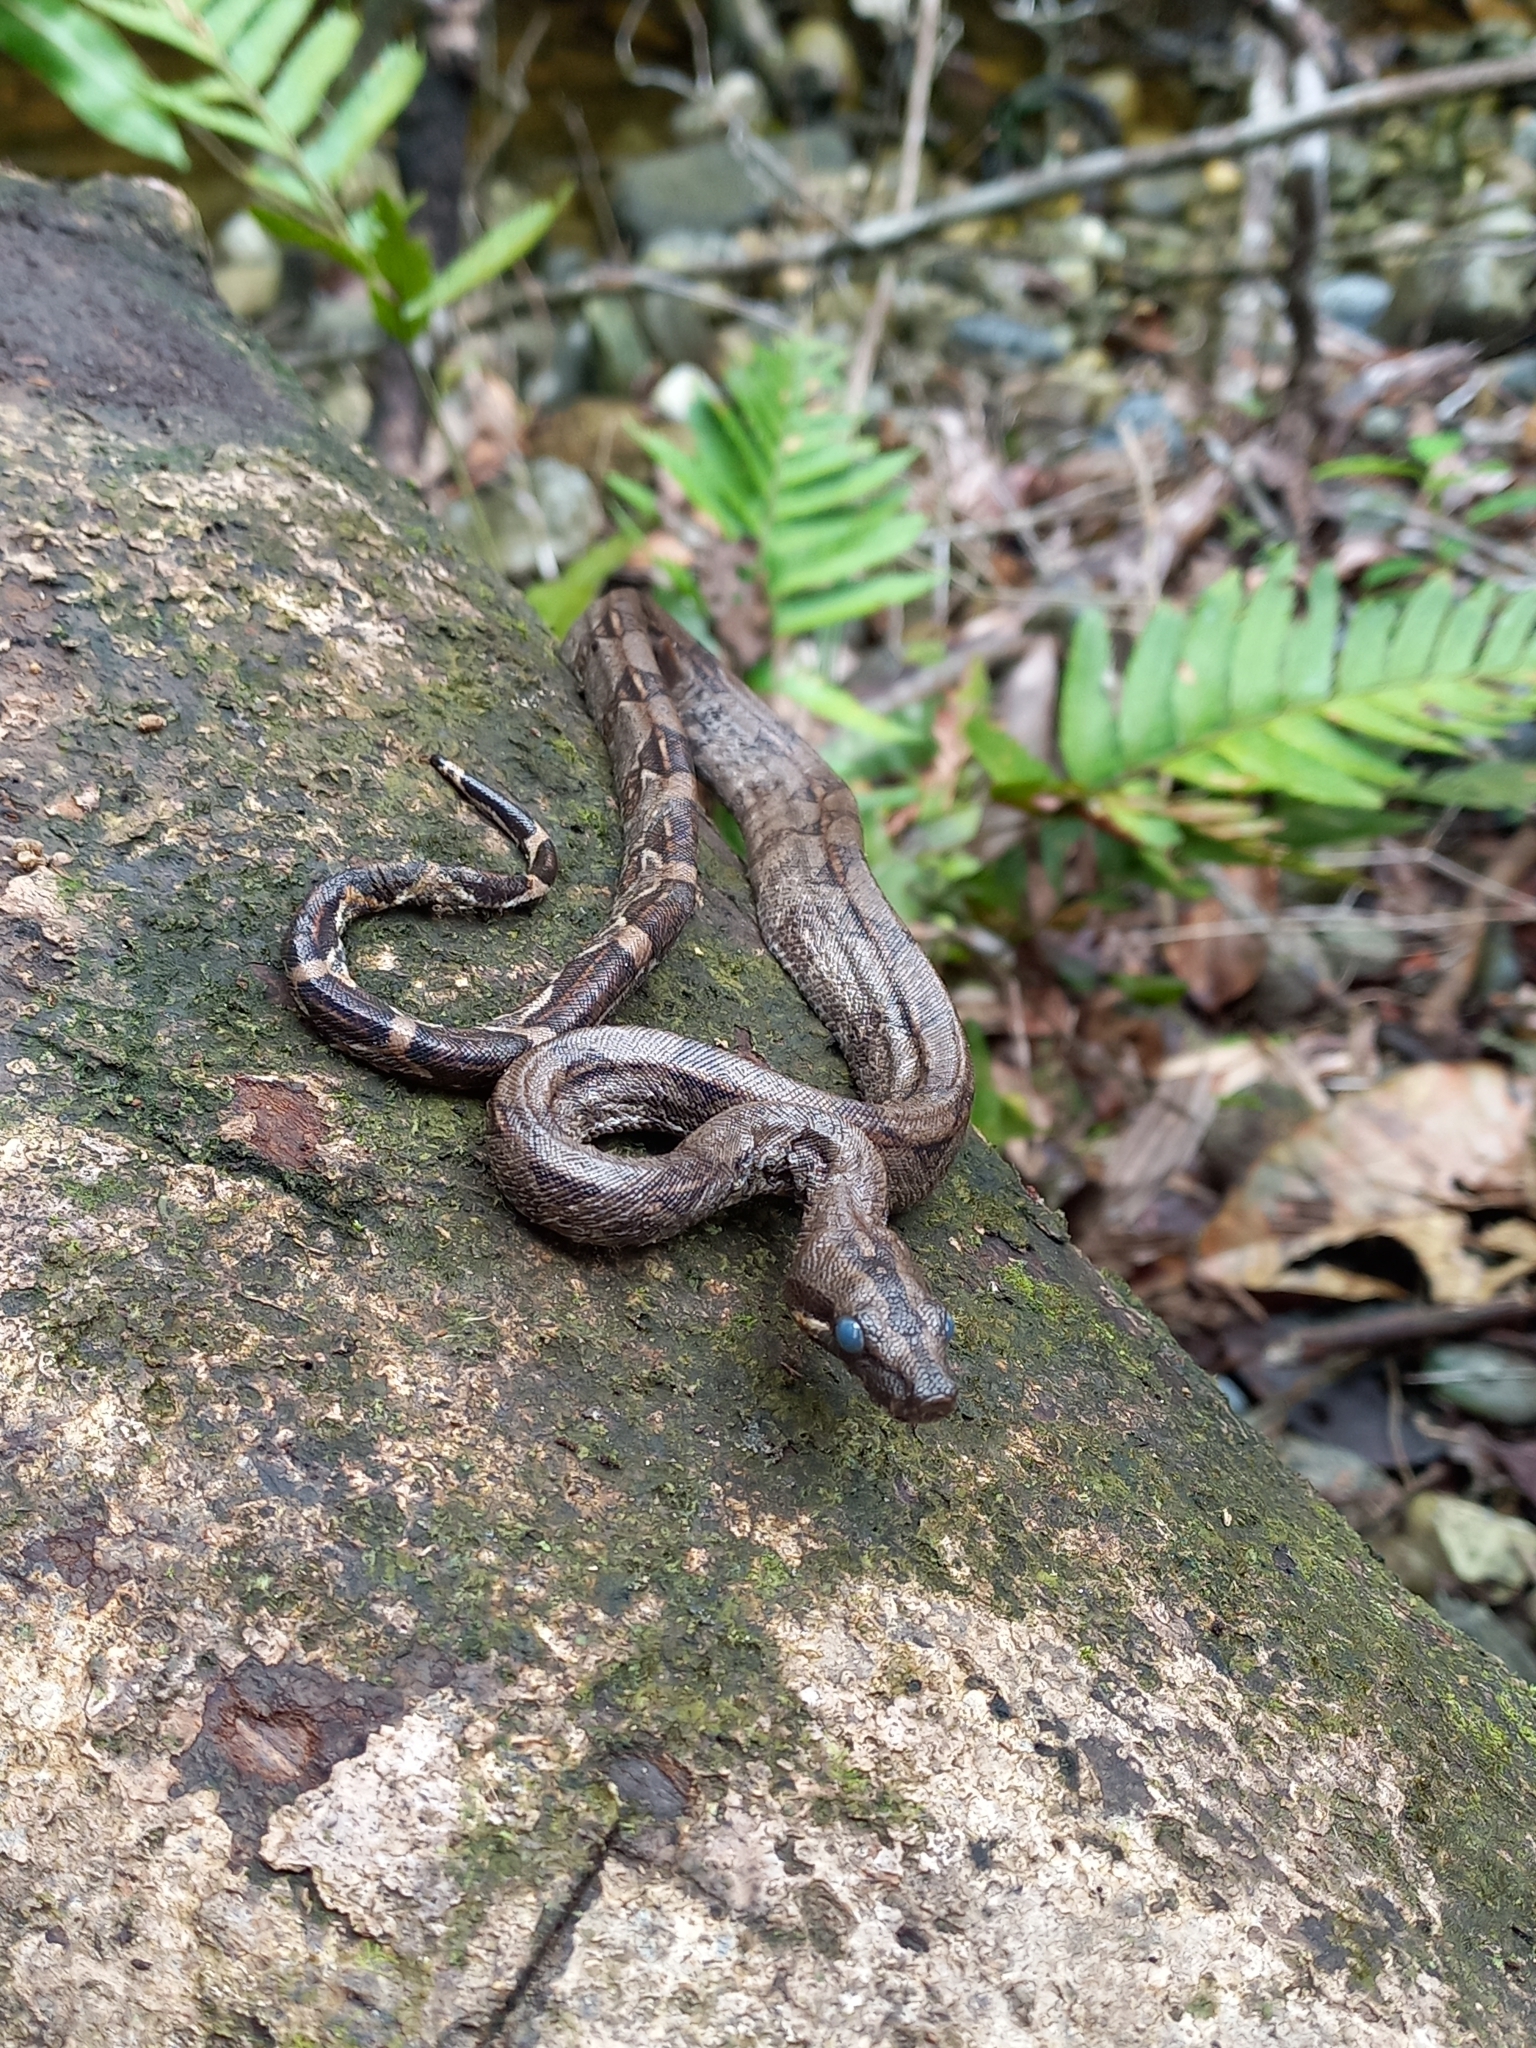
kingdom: Animalia
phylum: Chordata
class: Squamata
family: Boidae
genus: Boa
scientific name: Boa imperator
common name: Central american boa
